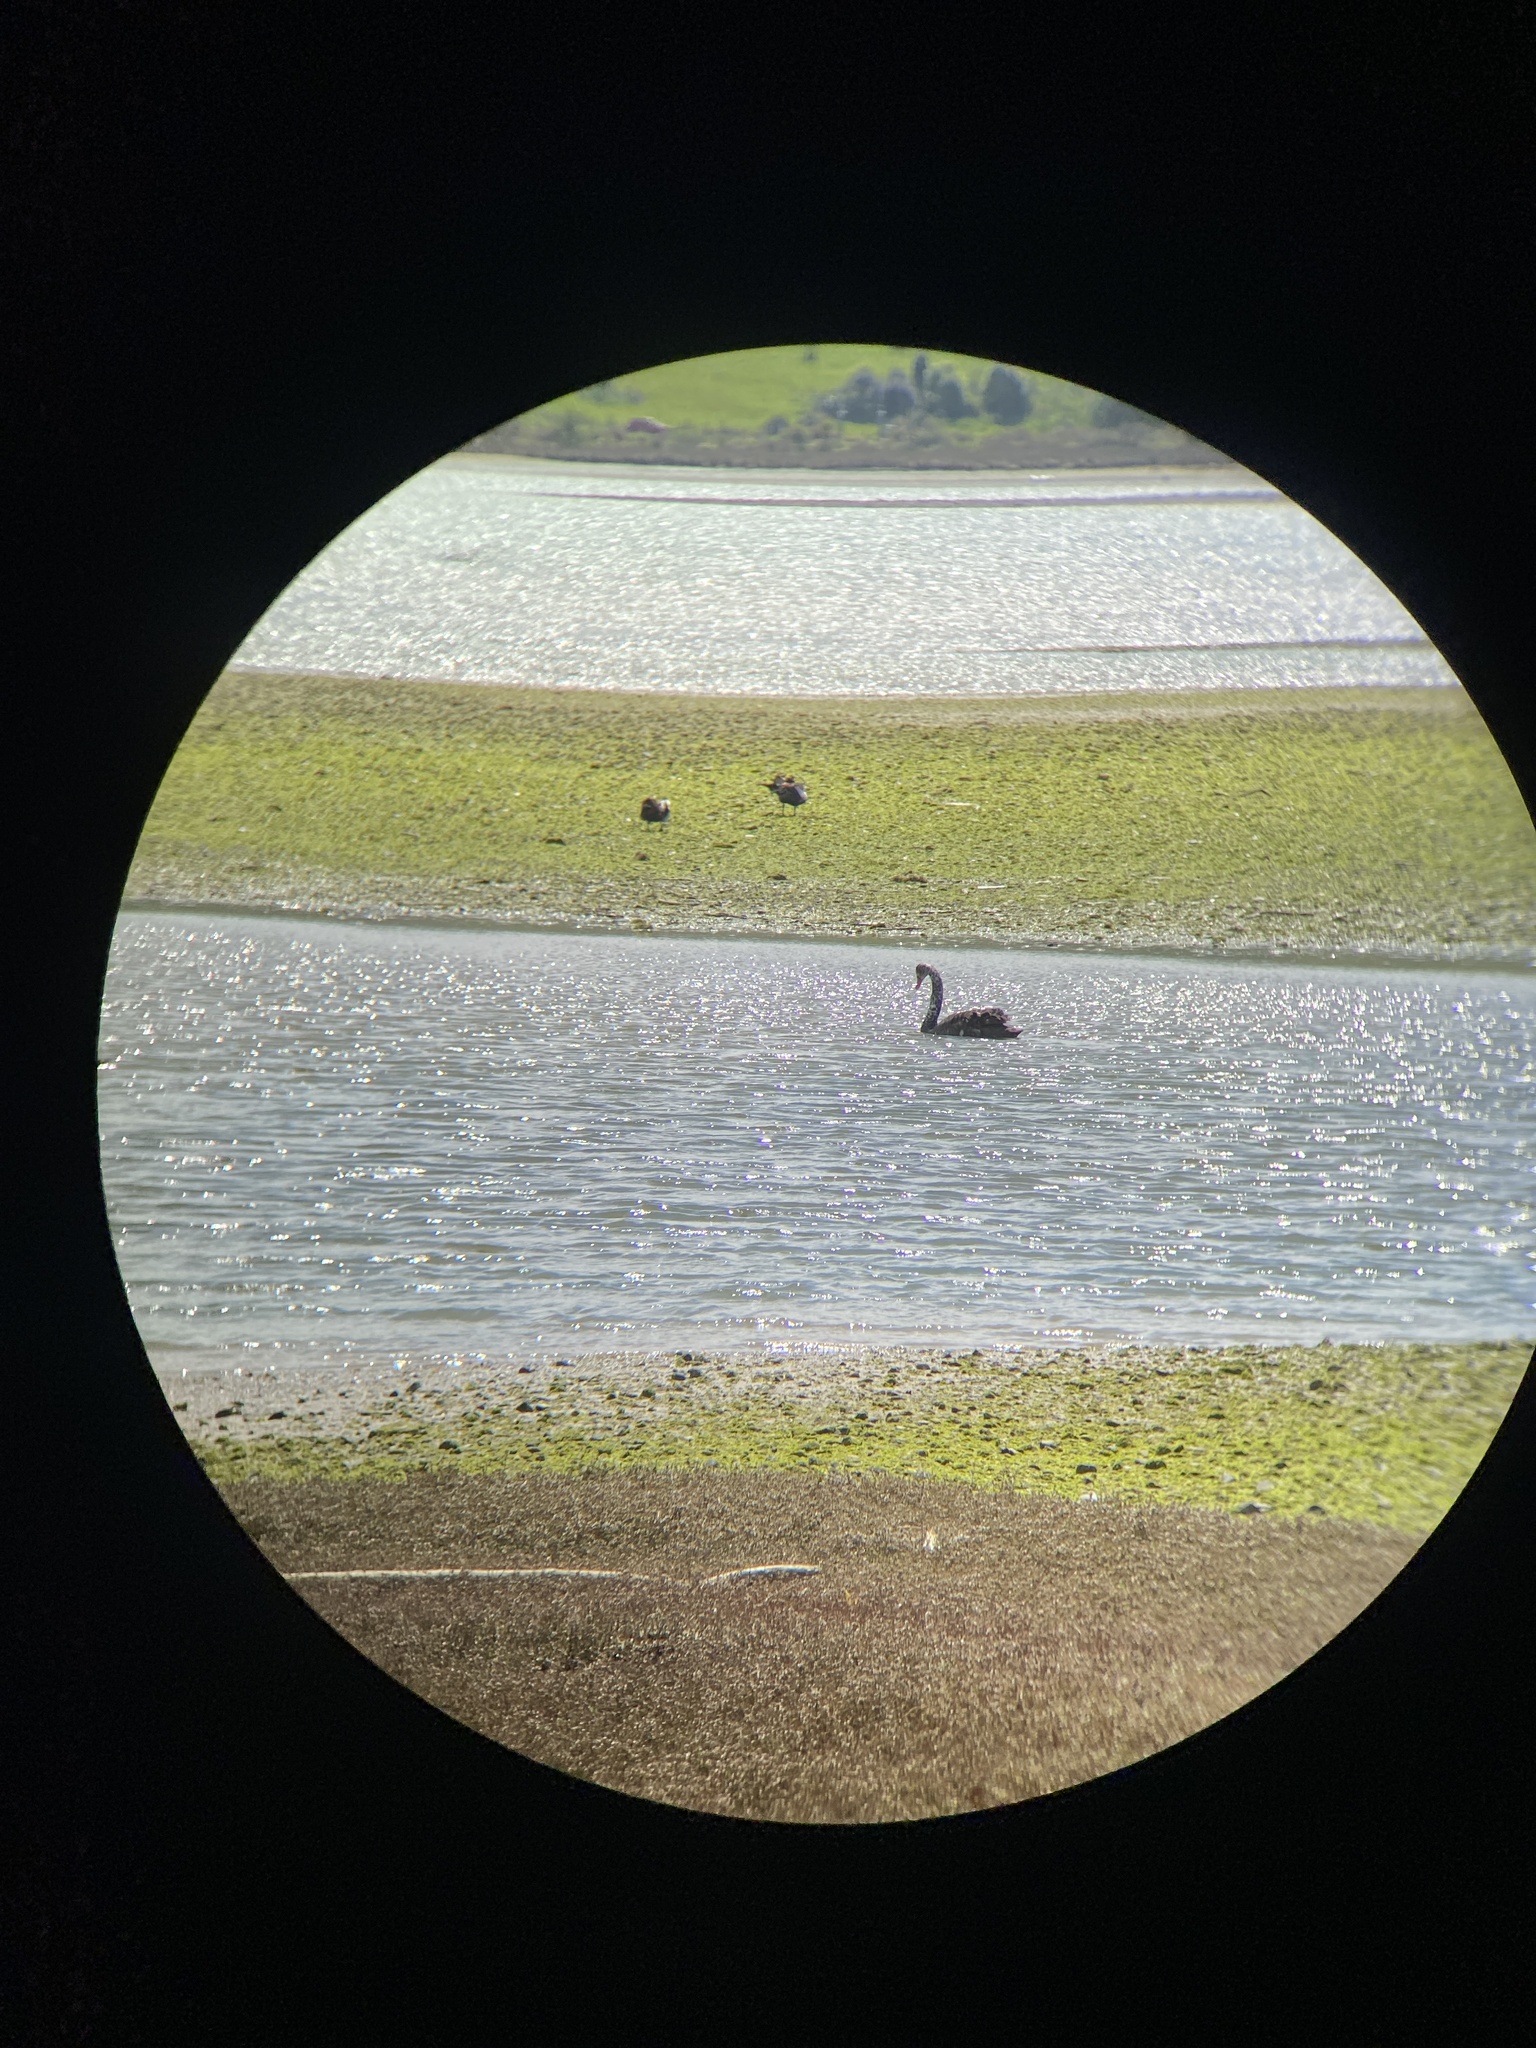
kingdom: Animalia
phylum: Chordata
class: Aves
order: Anseriformes
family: Anatidae
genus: Tadorna
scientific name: Tadorna variegata
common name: Paradise shelduck
